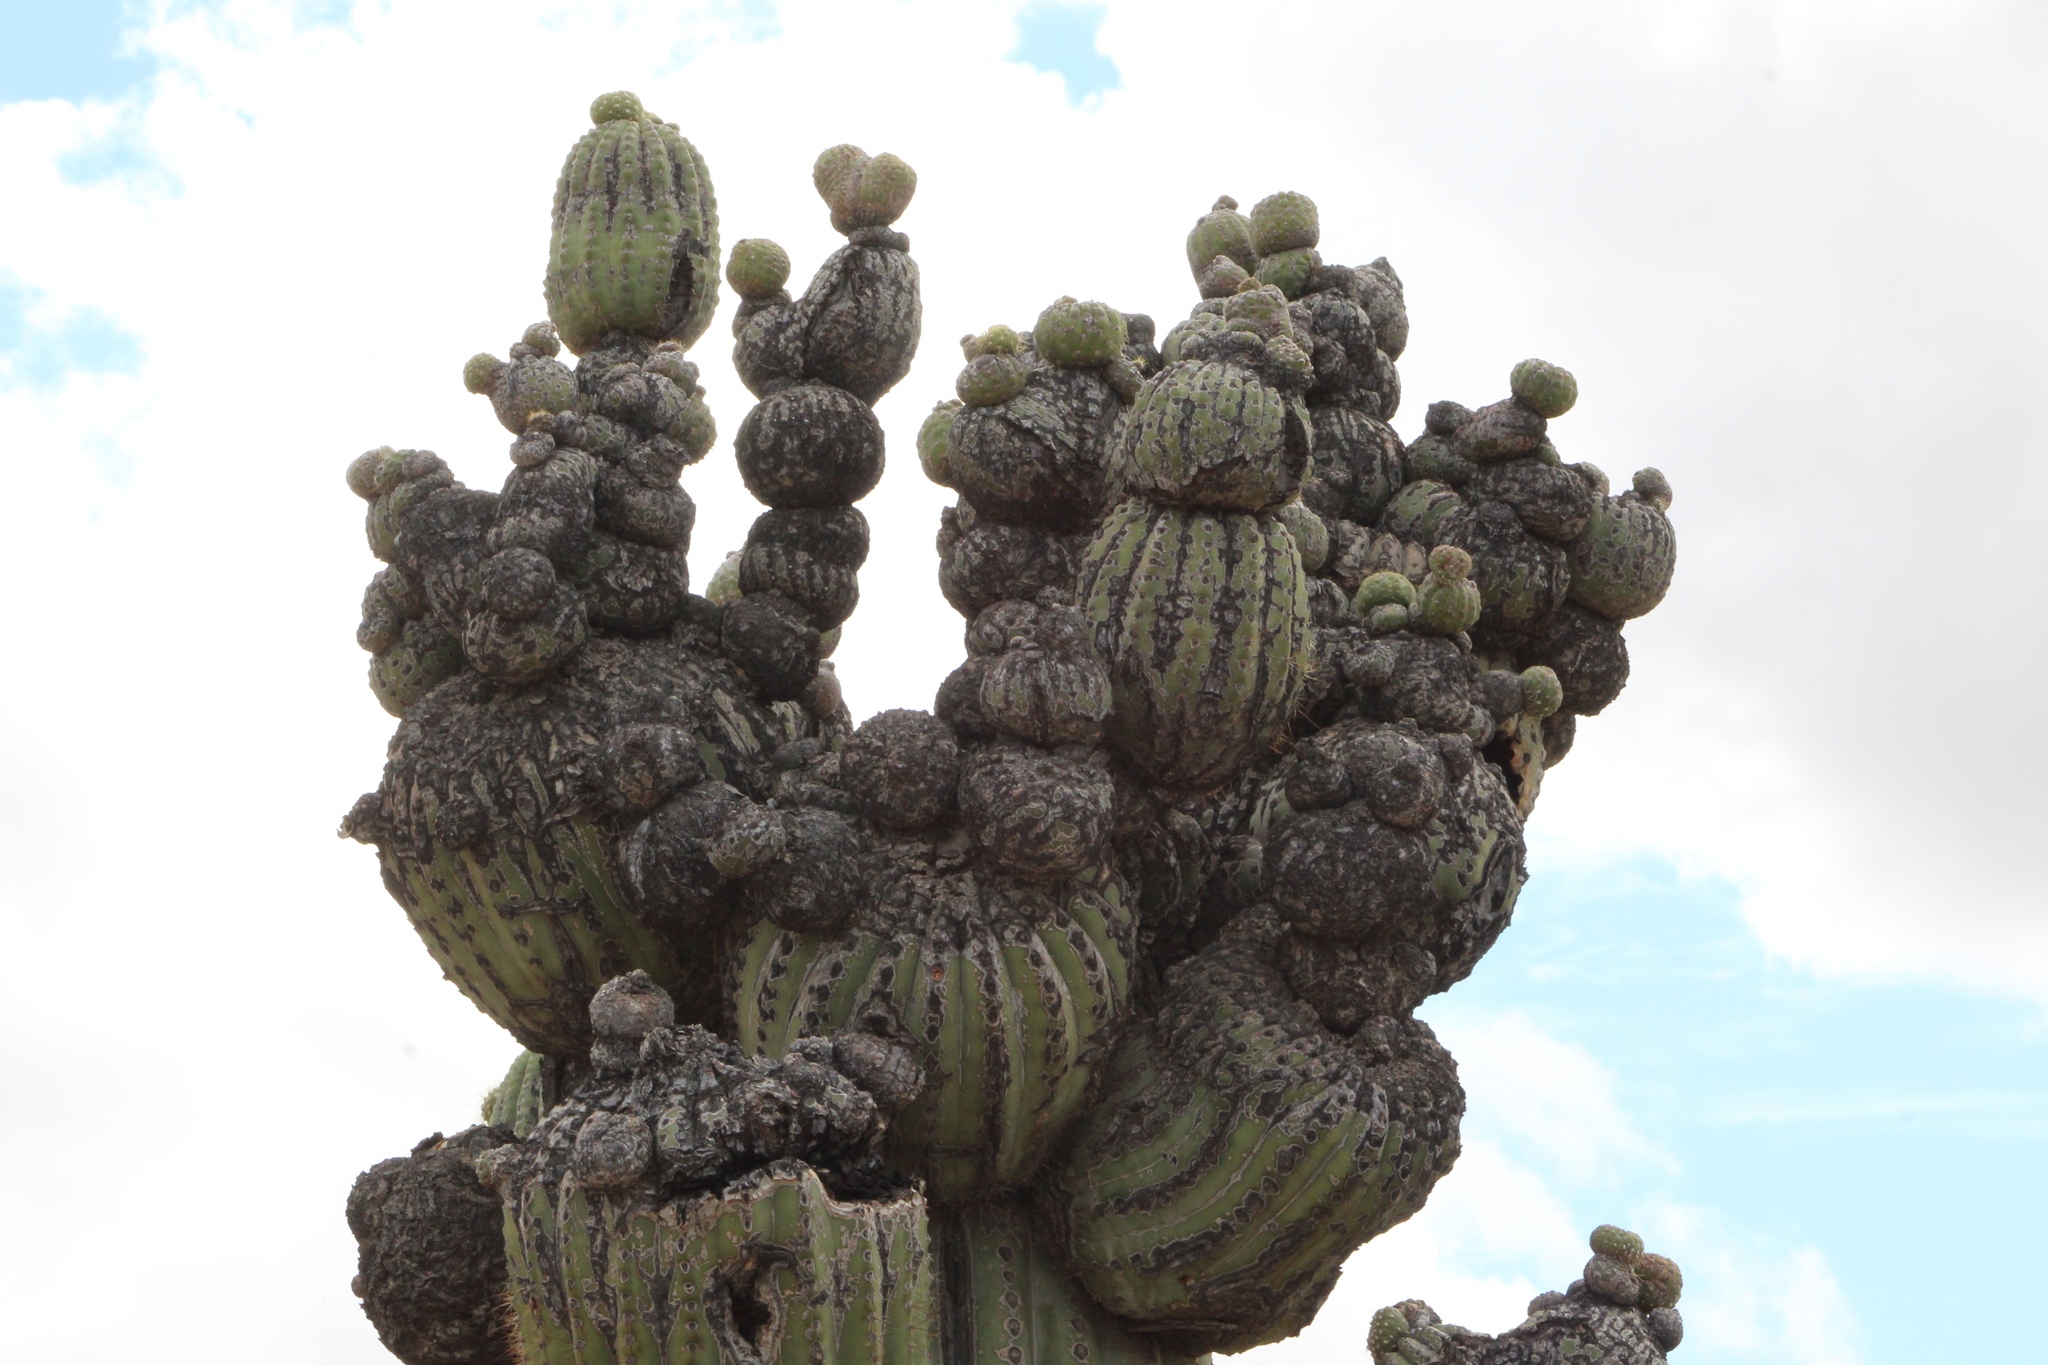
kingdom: Plantae
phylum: Tracheophyta
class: Magnoliopsida
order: Caryophyllales
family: Cactaceae
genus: Carnegiea
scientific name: Carnegiea gigantea
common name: Saguaro
